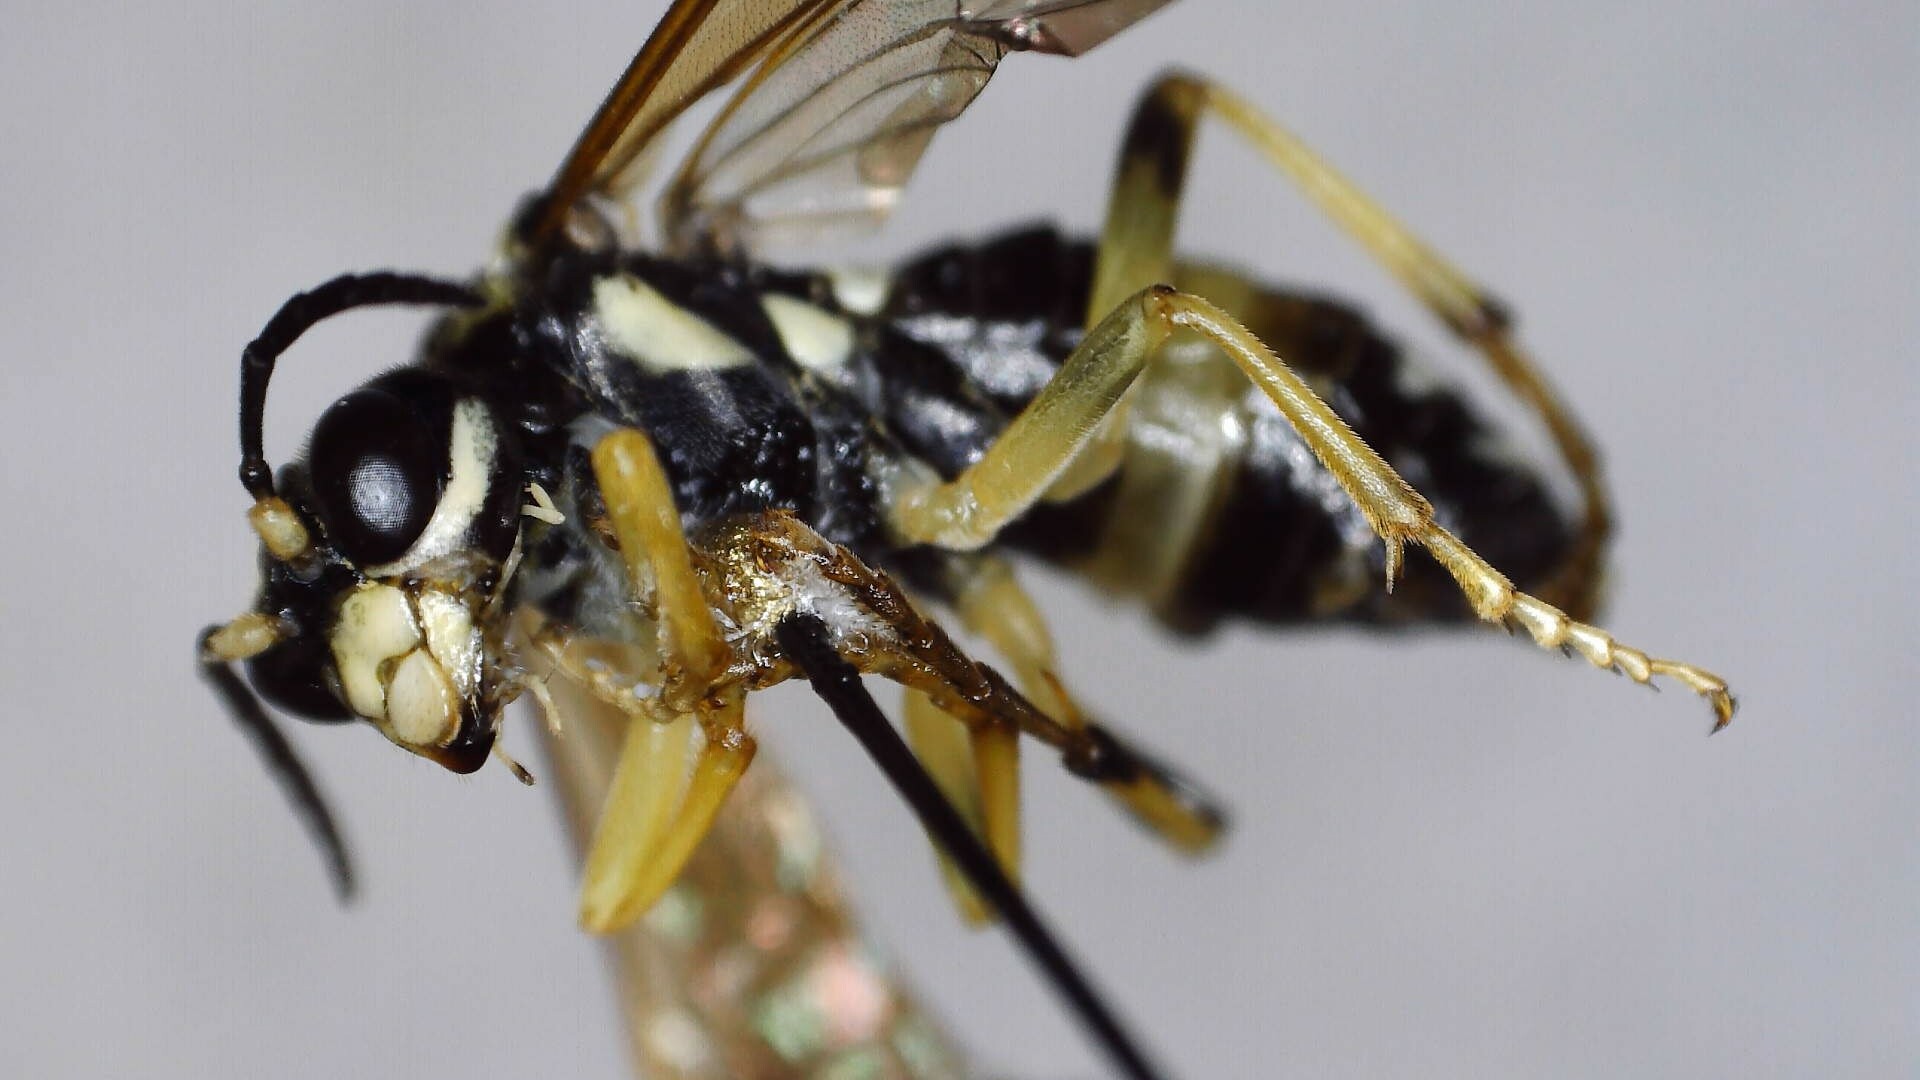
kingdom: Animalia
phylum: Arthropoda
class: Insecta
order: Hymenoptera
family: Tenthredinidae
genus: Tenthredo
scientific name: Tenthredo
